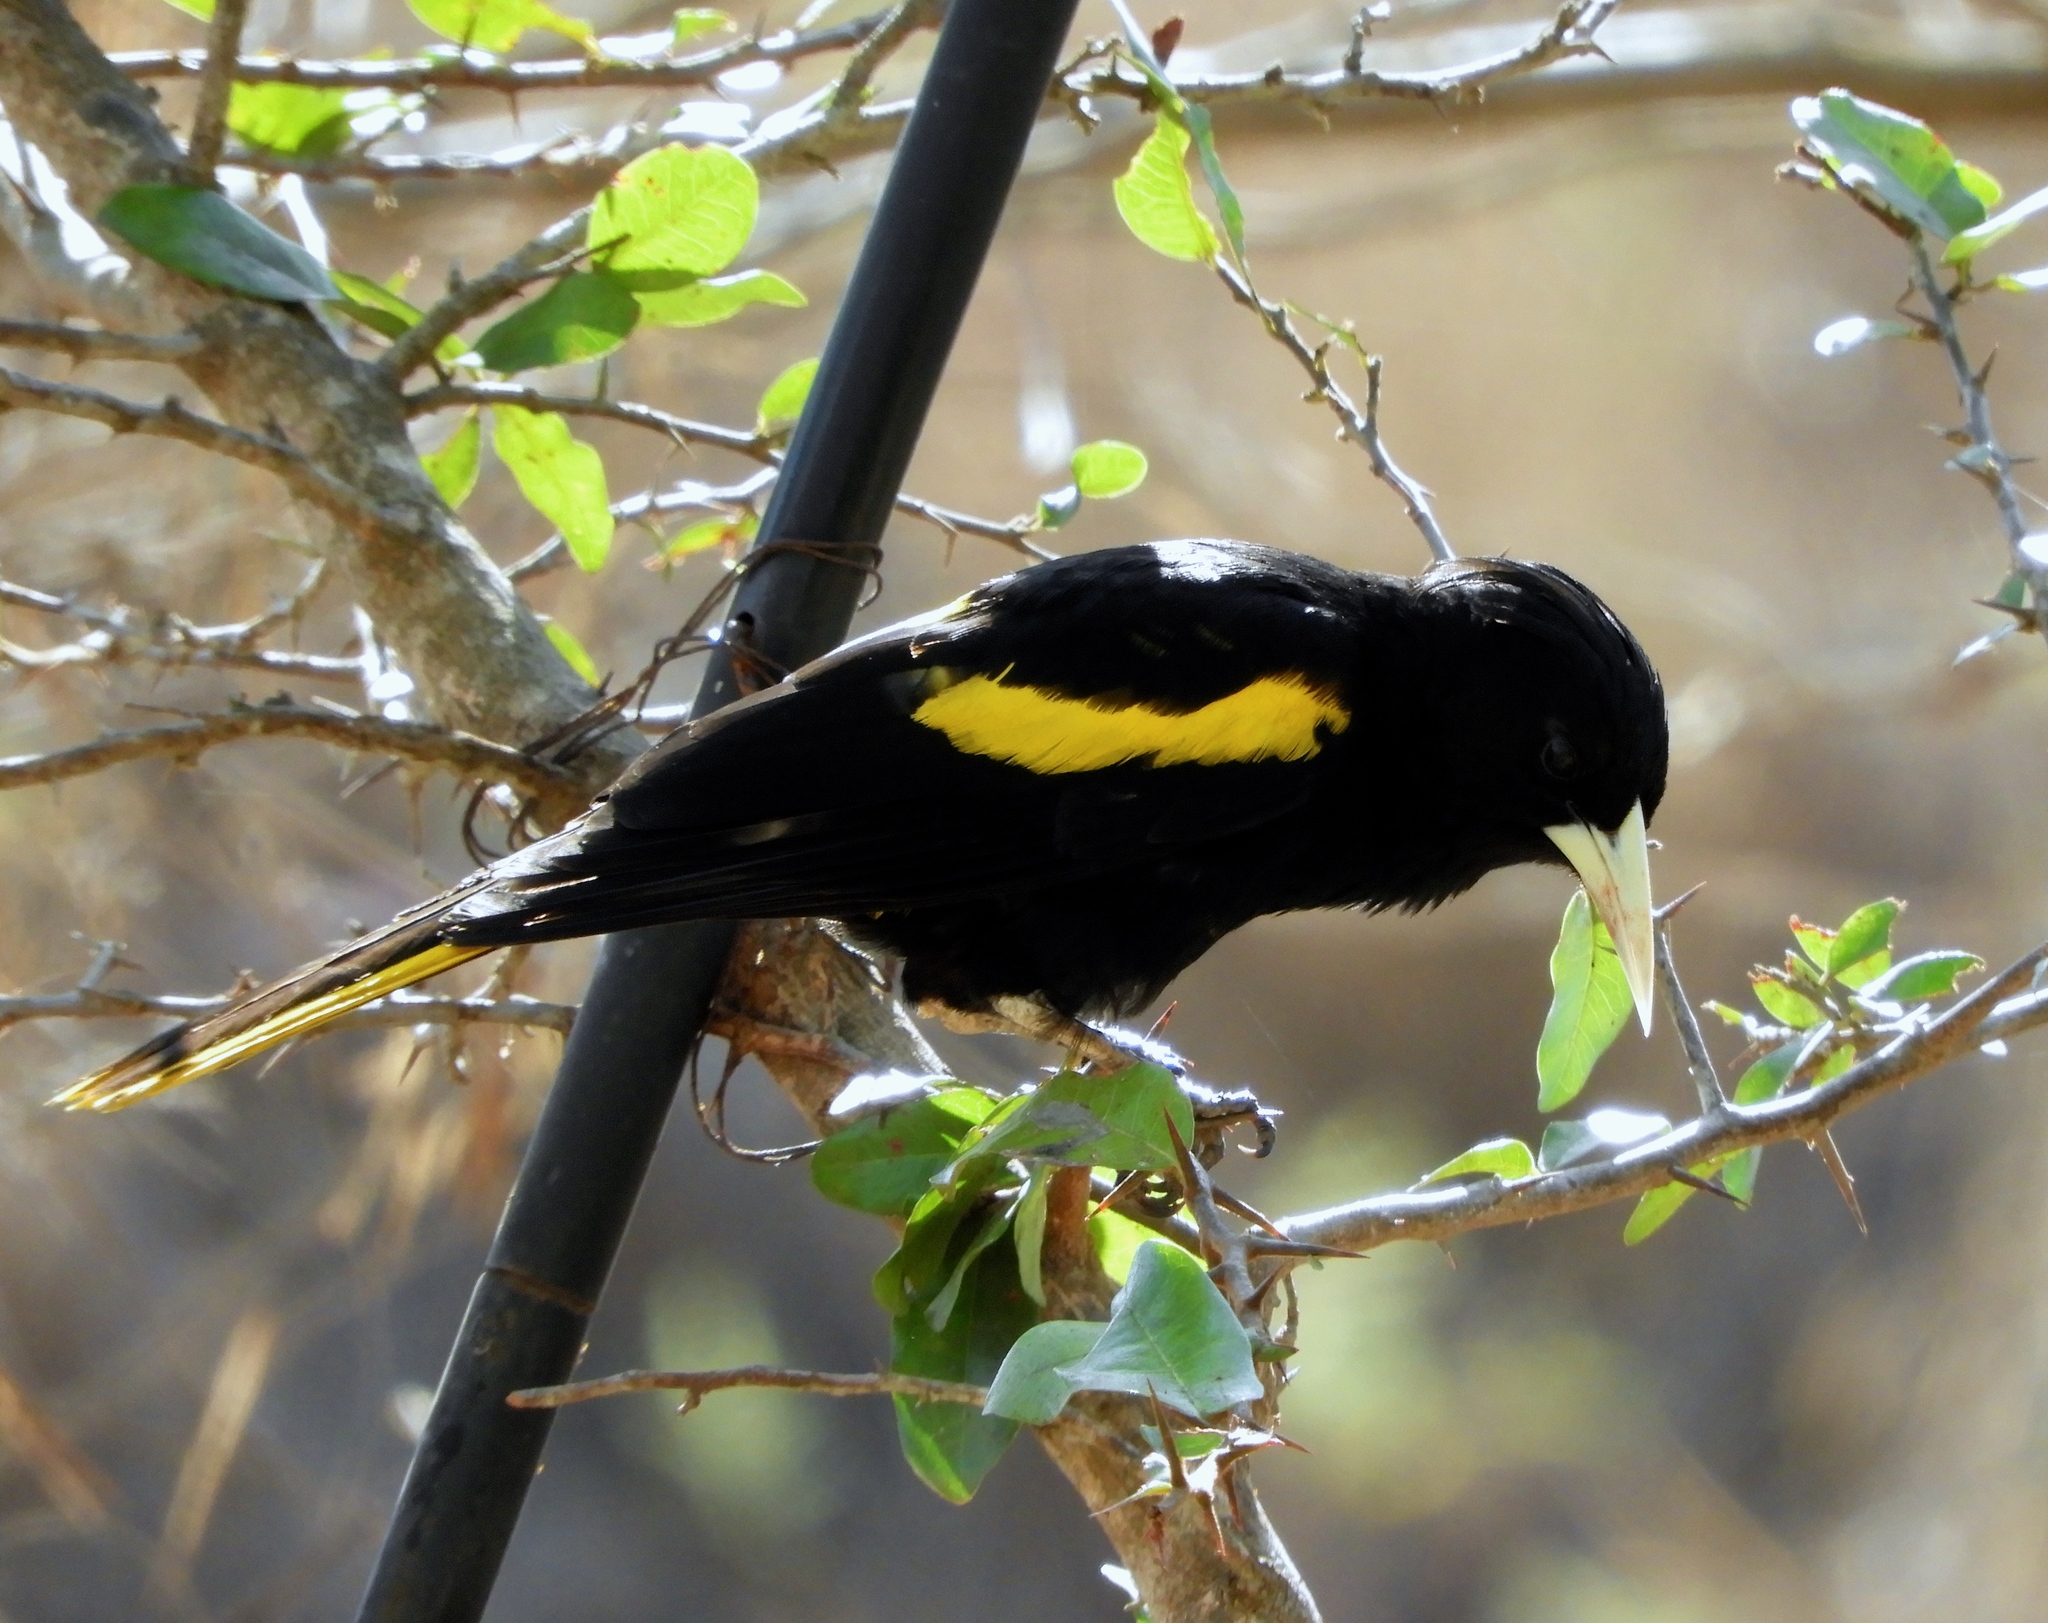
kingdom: Animalia
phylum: Chordata
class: Aves
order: Passeriformes
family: Icteridae
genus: Cacicus
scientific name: Cacicus melanicterus
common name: Yellow-winged cacique
